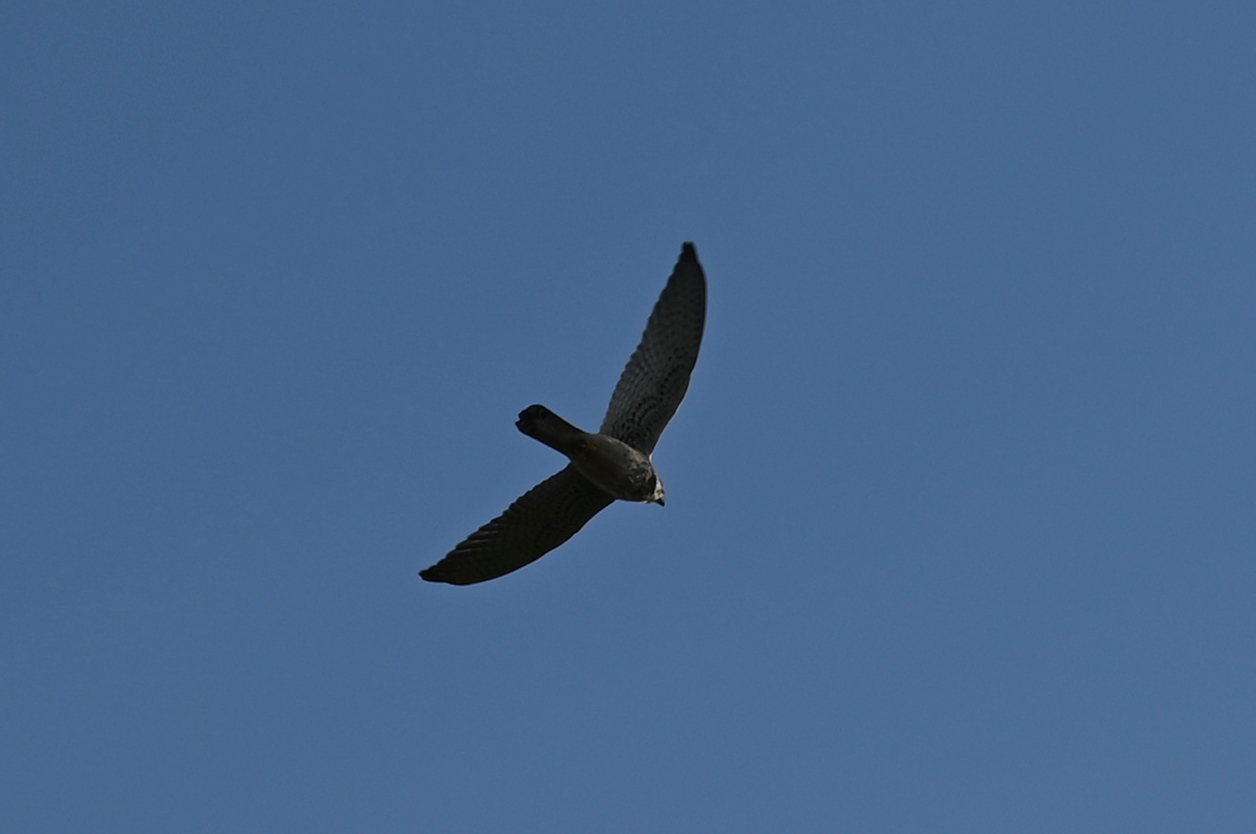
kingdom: Animalia
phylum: Chordata
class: Aves
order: Falconiformes
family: Falconidae
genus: Falco
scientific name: Falco tinnunculus
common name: Common kestrel
